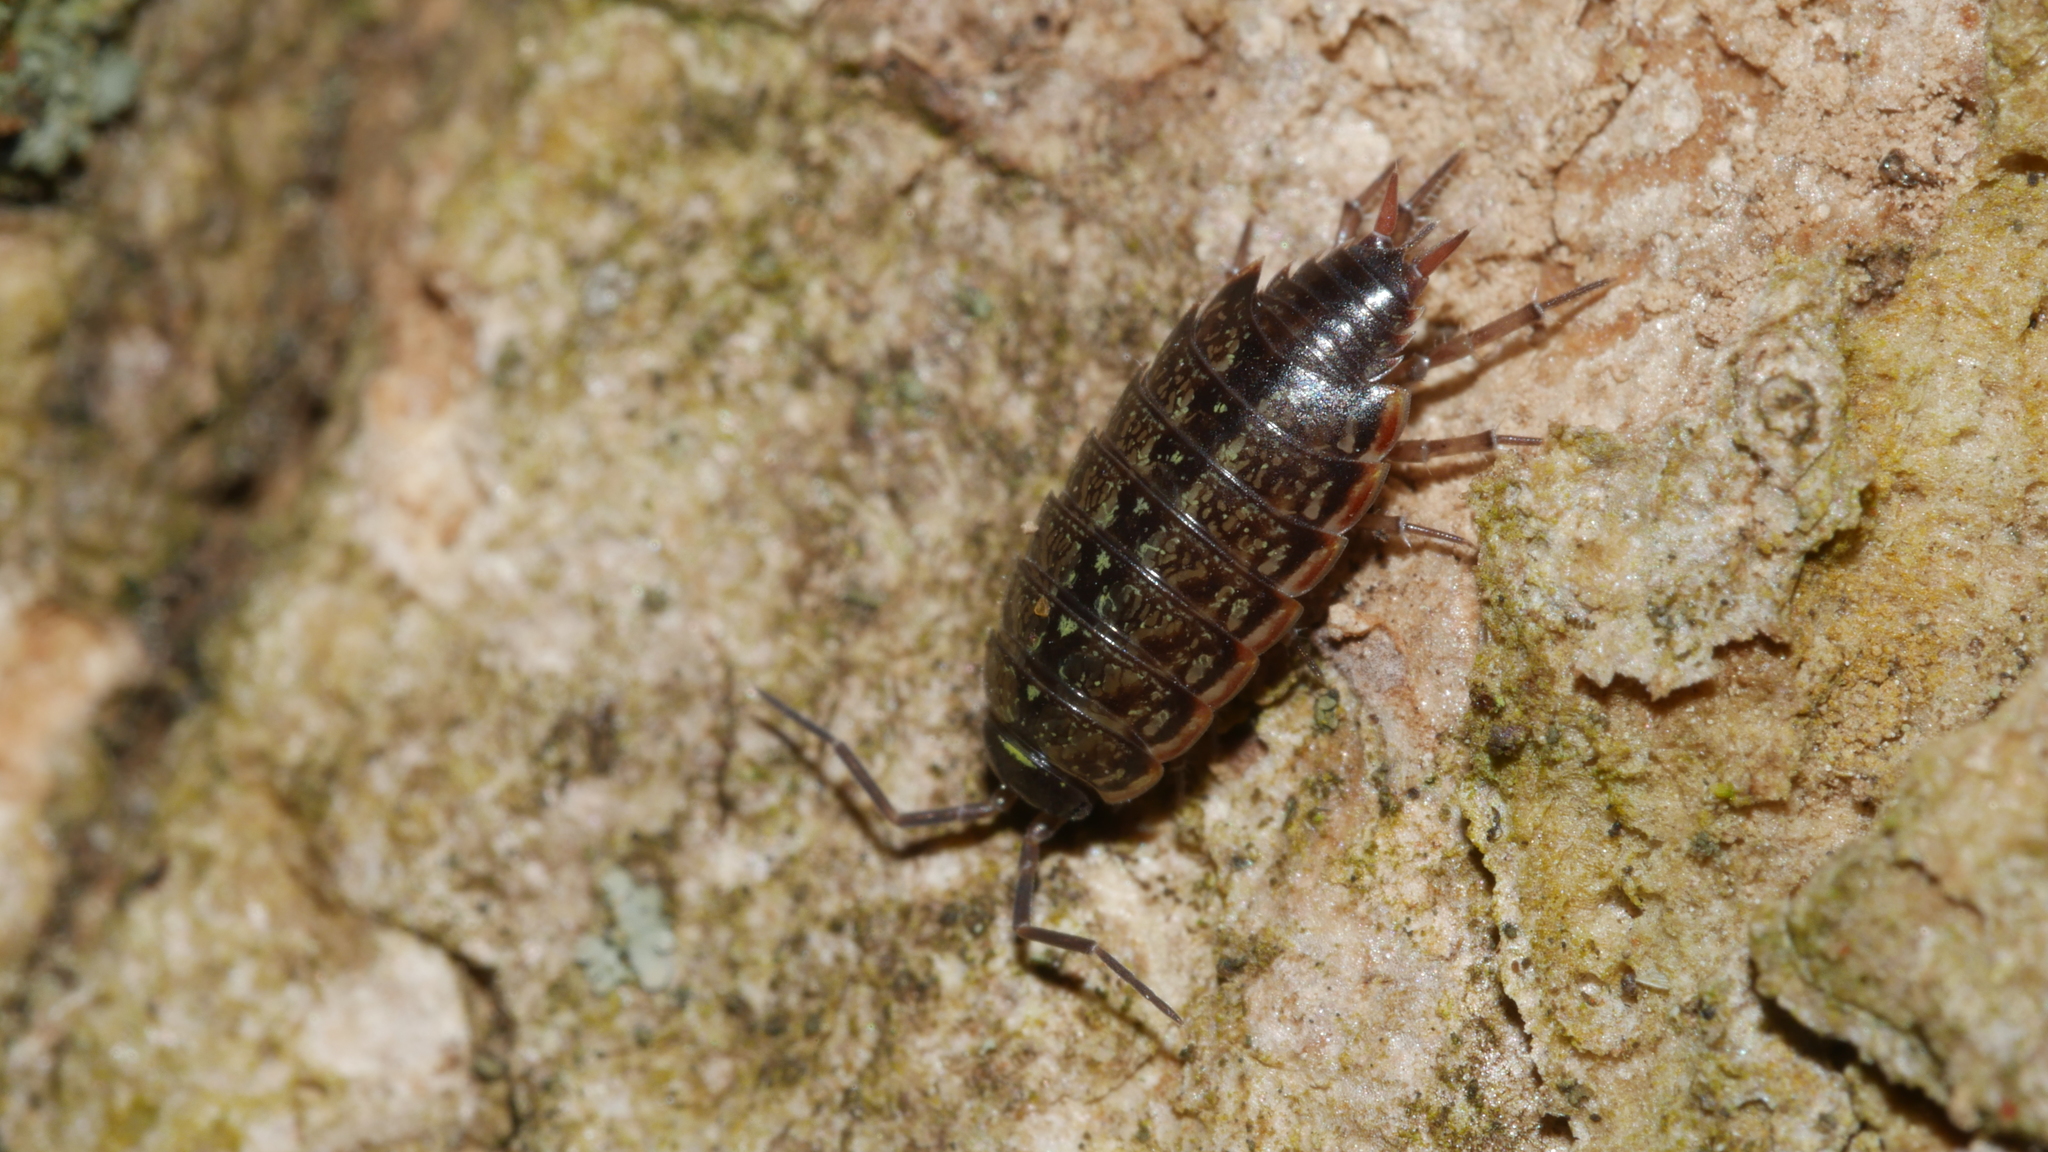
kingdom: Animalia
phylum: Arthropoda
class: Malacostraca
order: Isopoda
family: Philosciidae
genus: Philoscia
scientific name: Philoscia muscorum
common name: Common striped woodlouse
